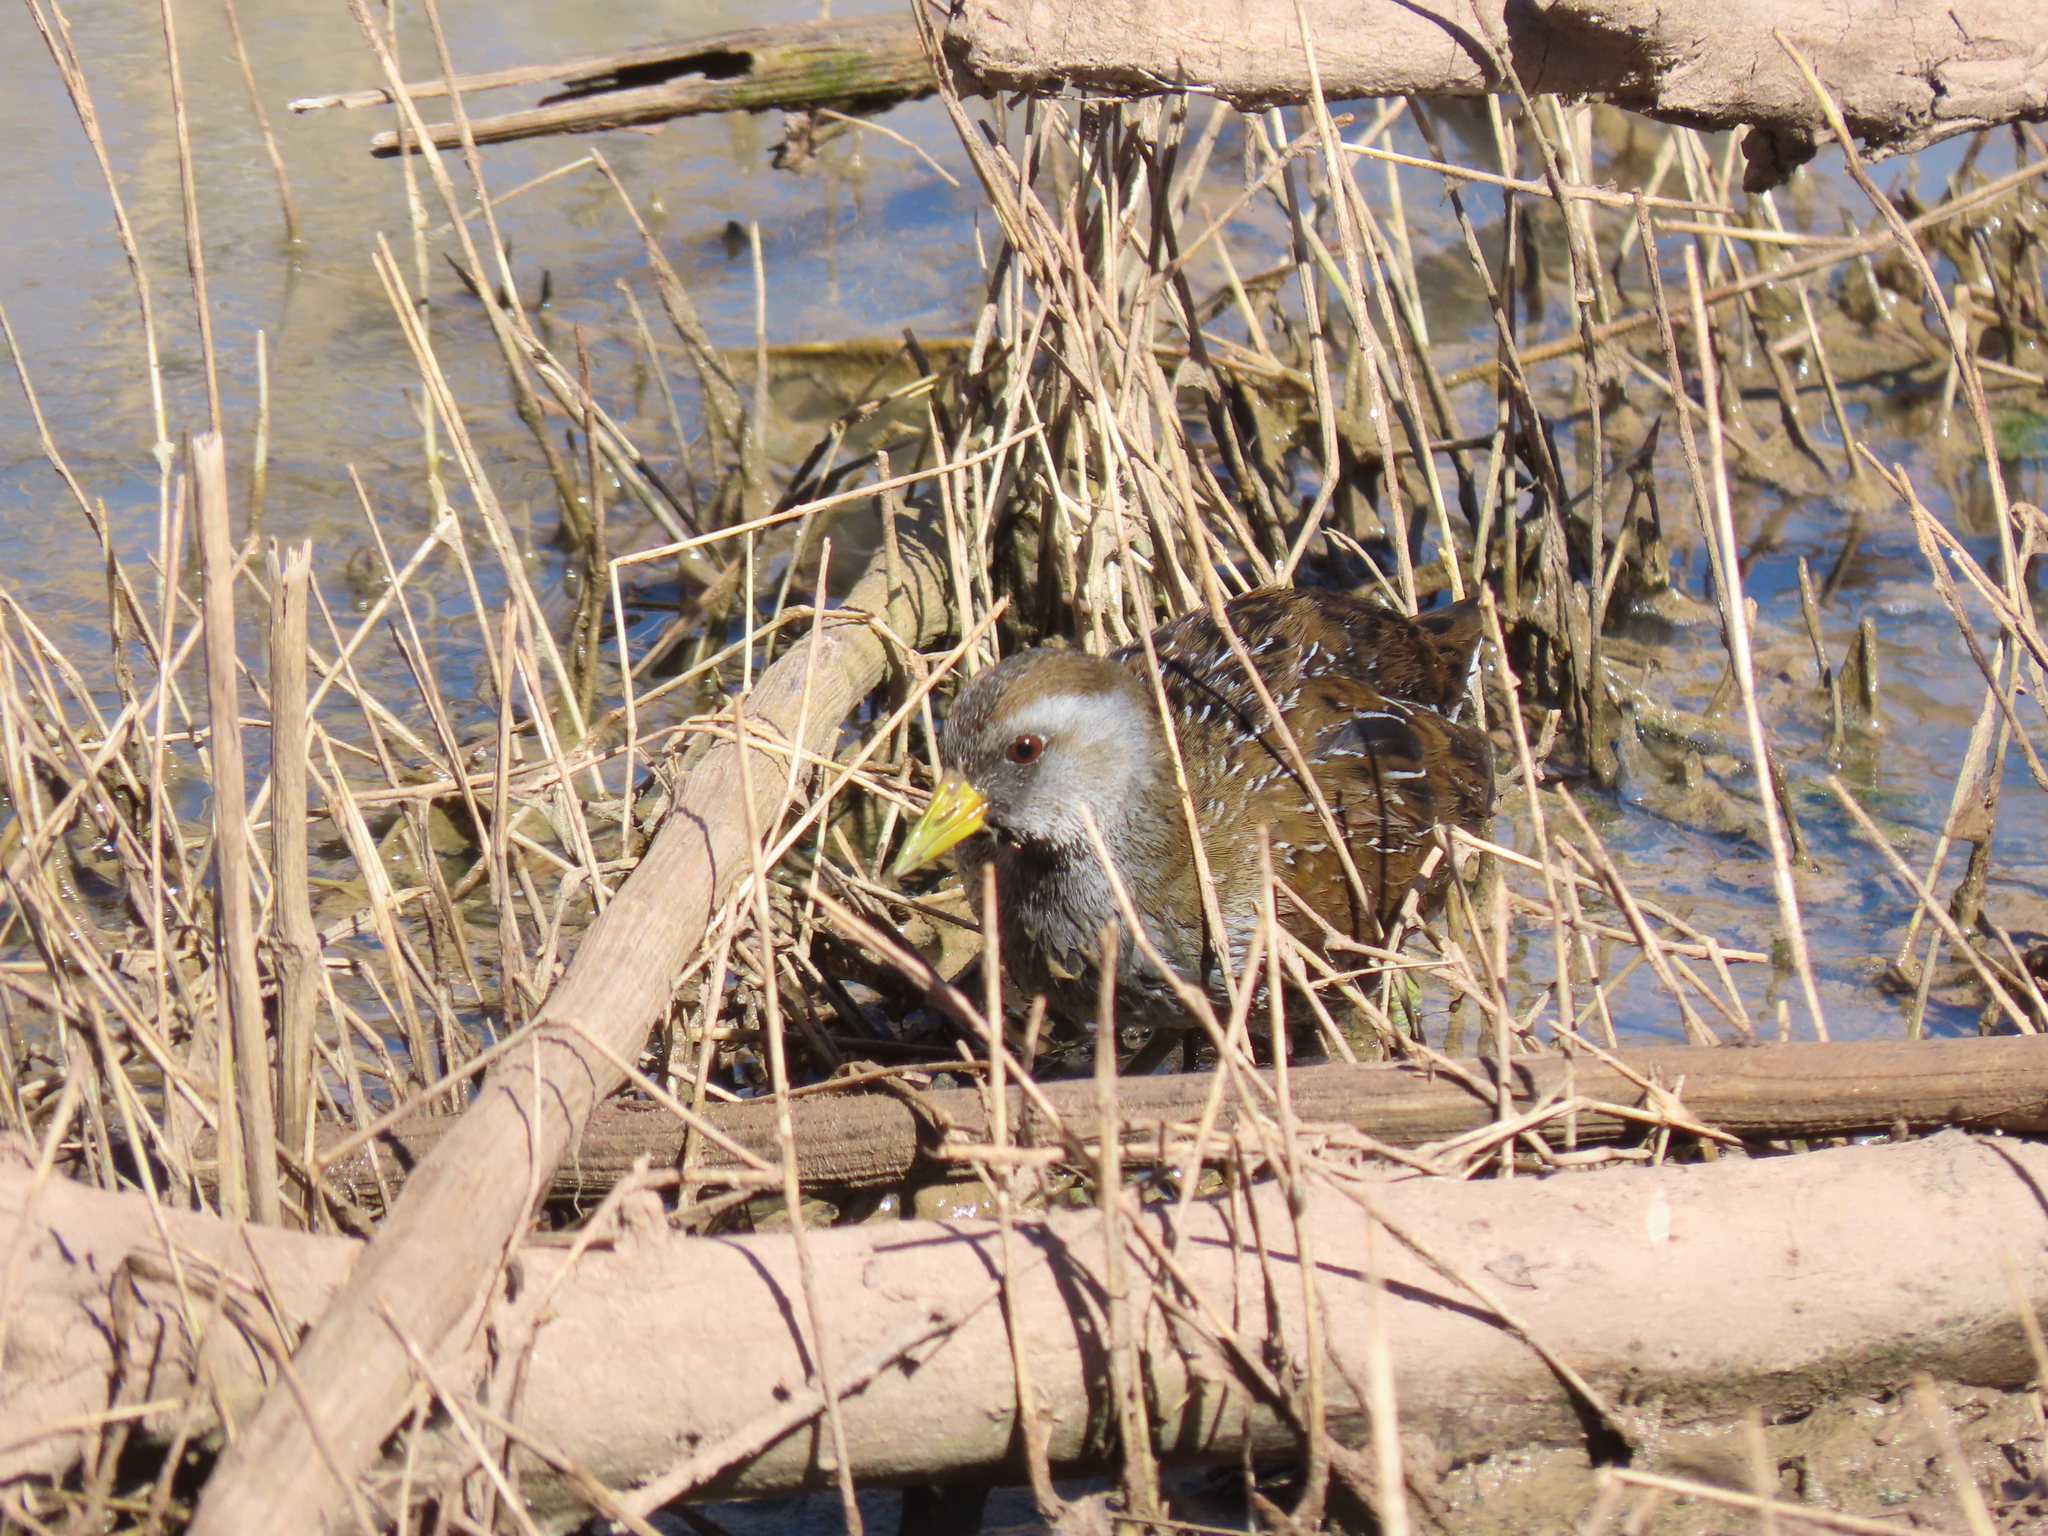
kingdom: Animalia
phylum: Chordata
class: Aves
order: Gruiformes
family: Rallidae
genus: Porzana
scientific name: Porzana carolina
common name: Sora
